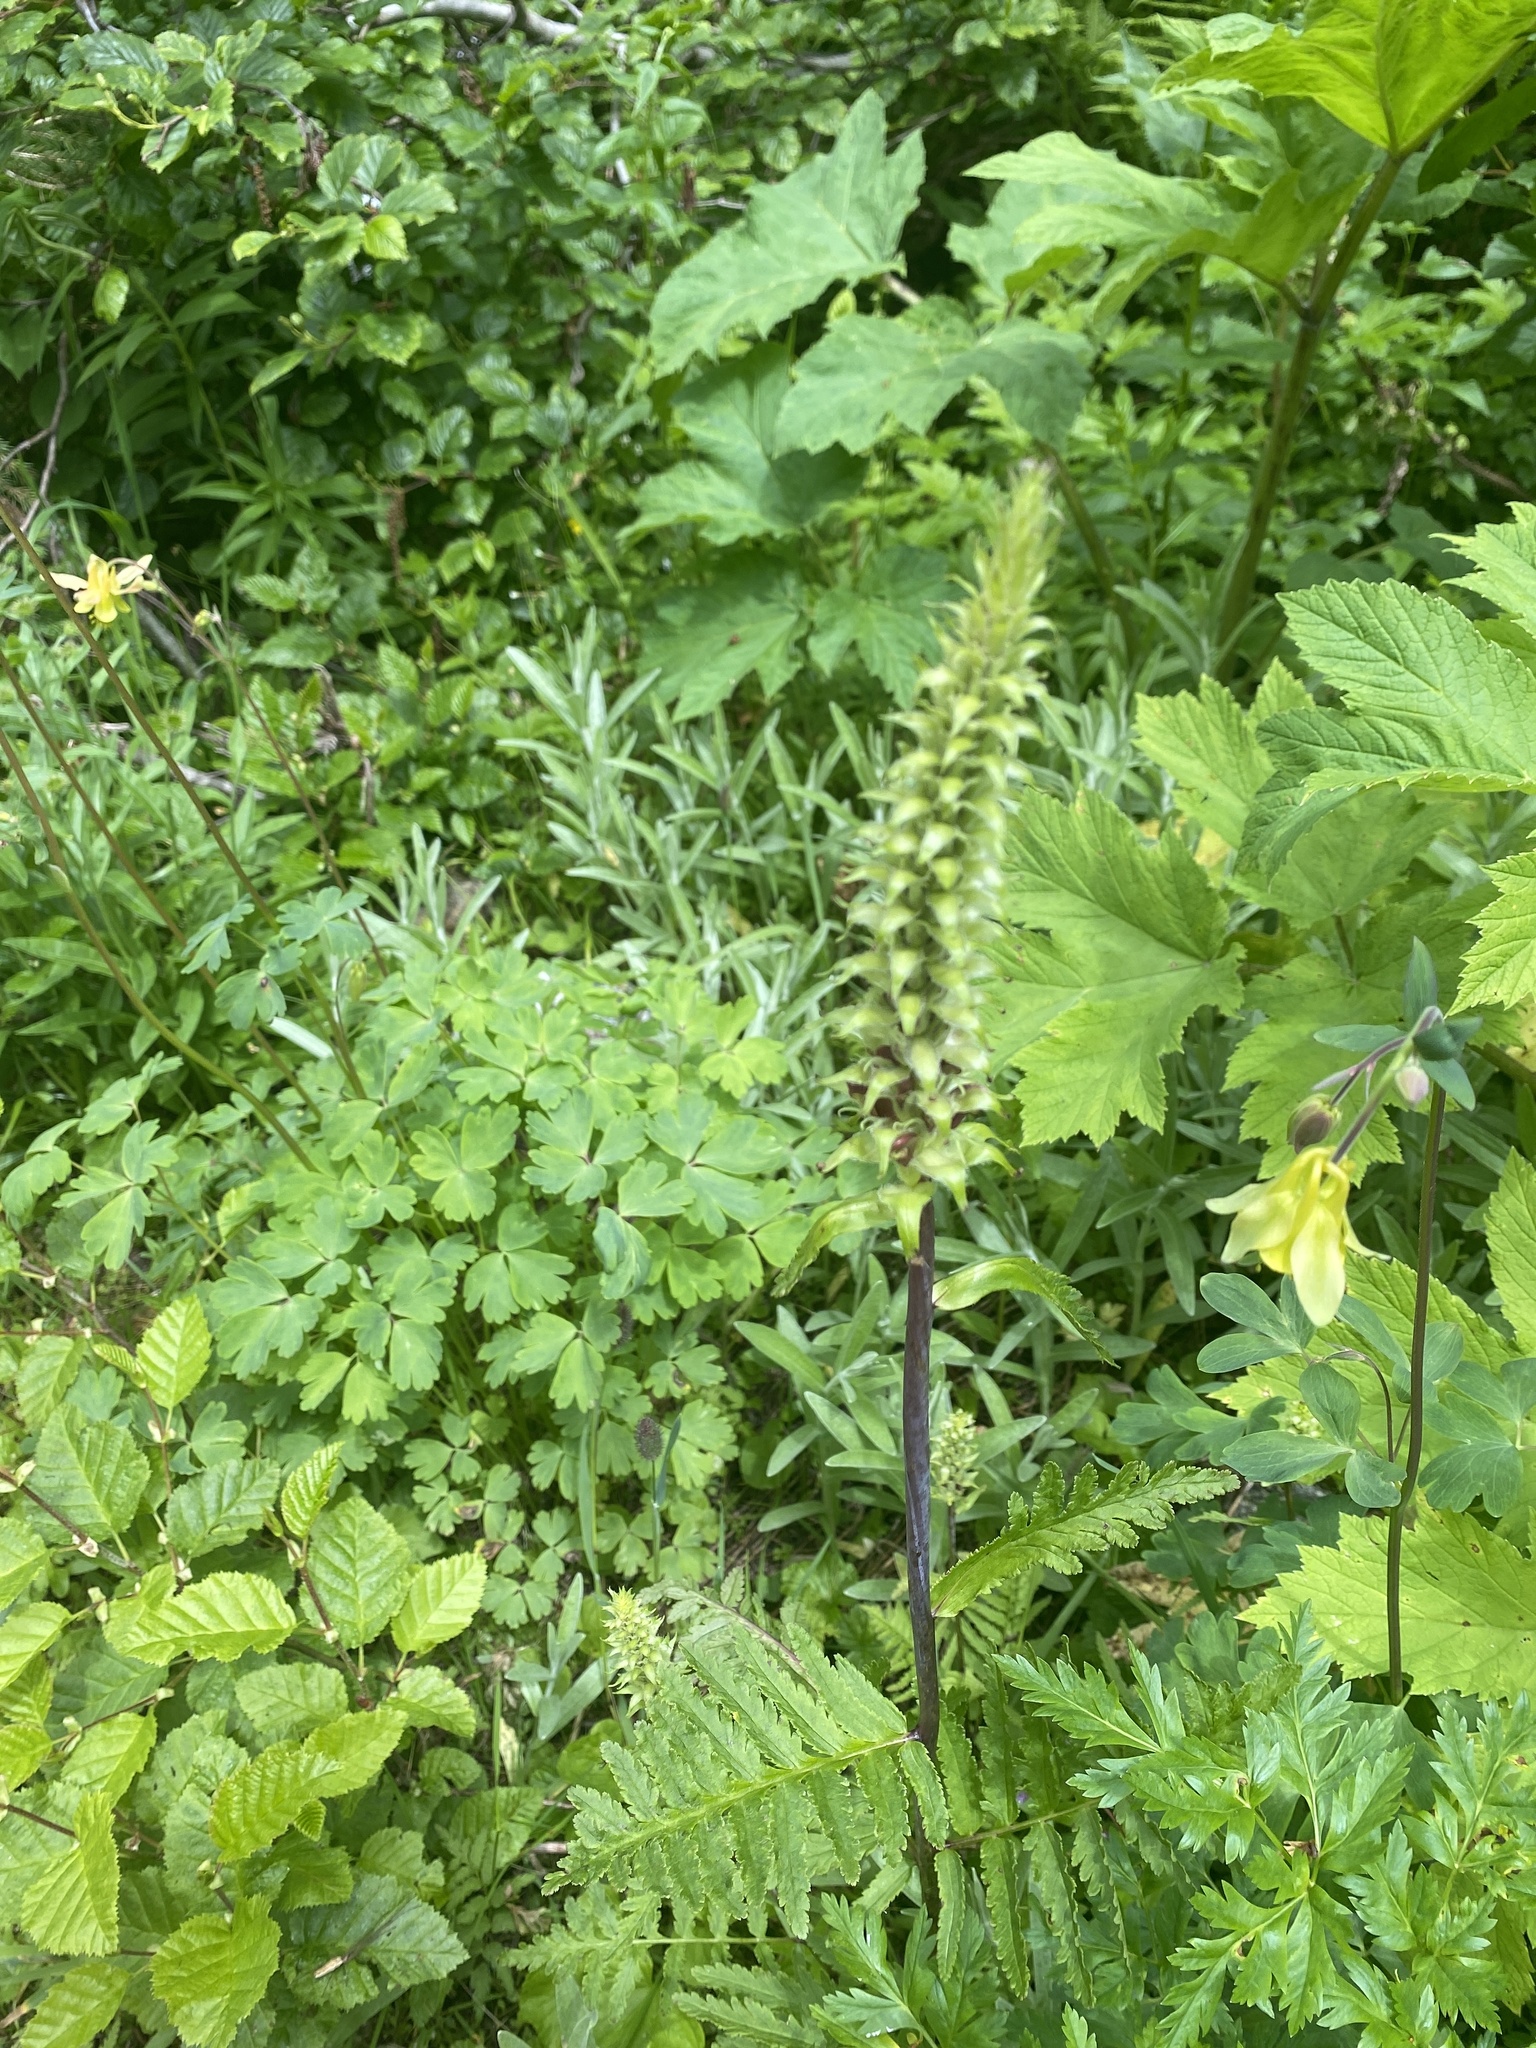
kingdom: Plantae
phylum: Tracheophyta
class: Magnoliopsida
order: Lamiales
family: Orobanchaceae
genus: Pedicularis
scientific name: Pedicularis bracteosa
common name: Bracted lousewort
